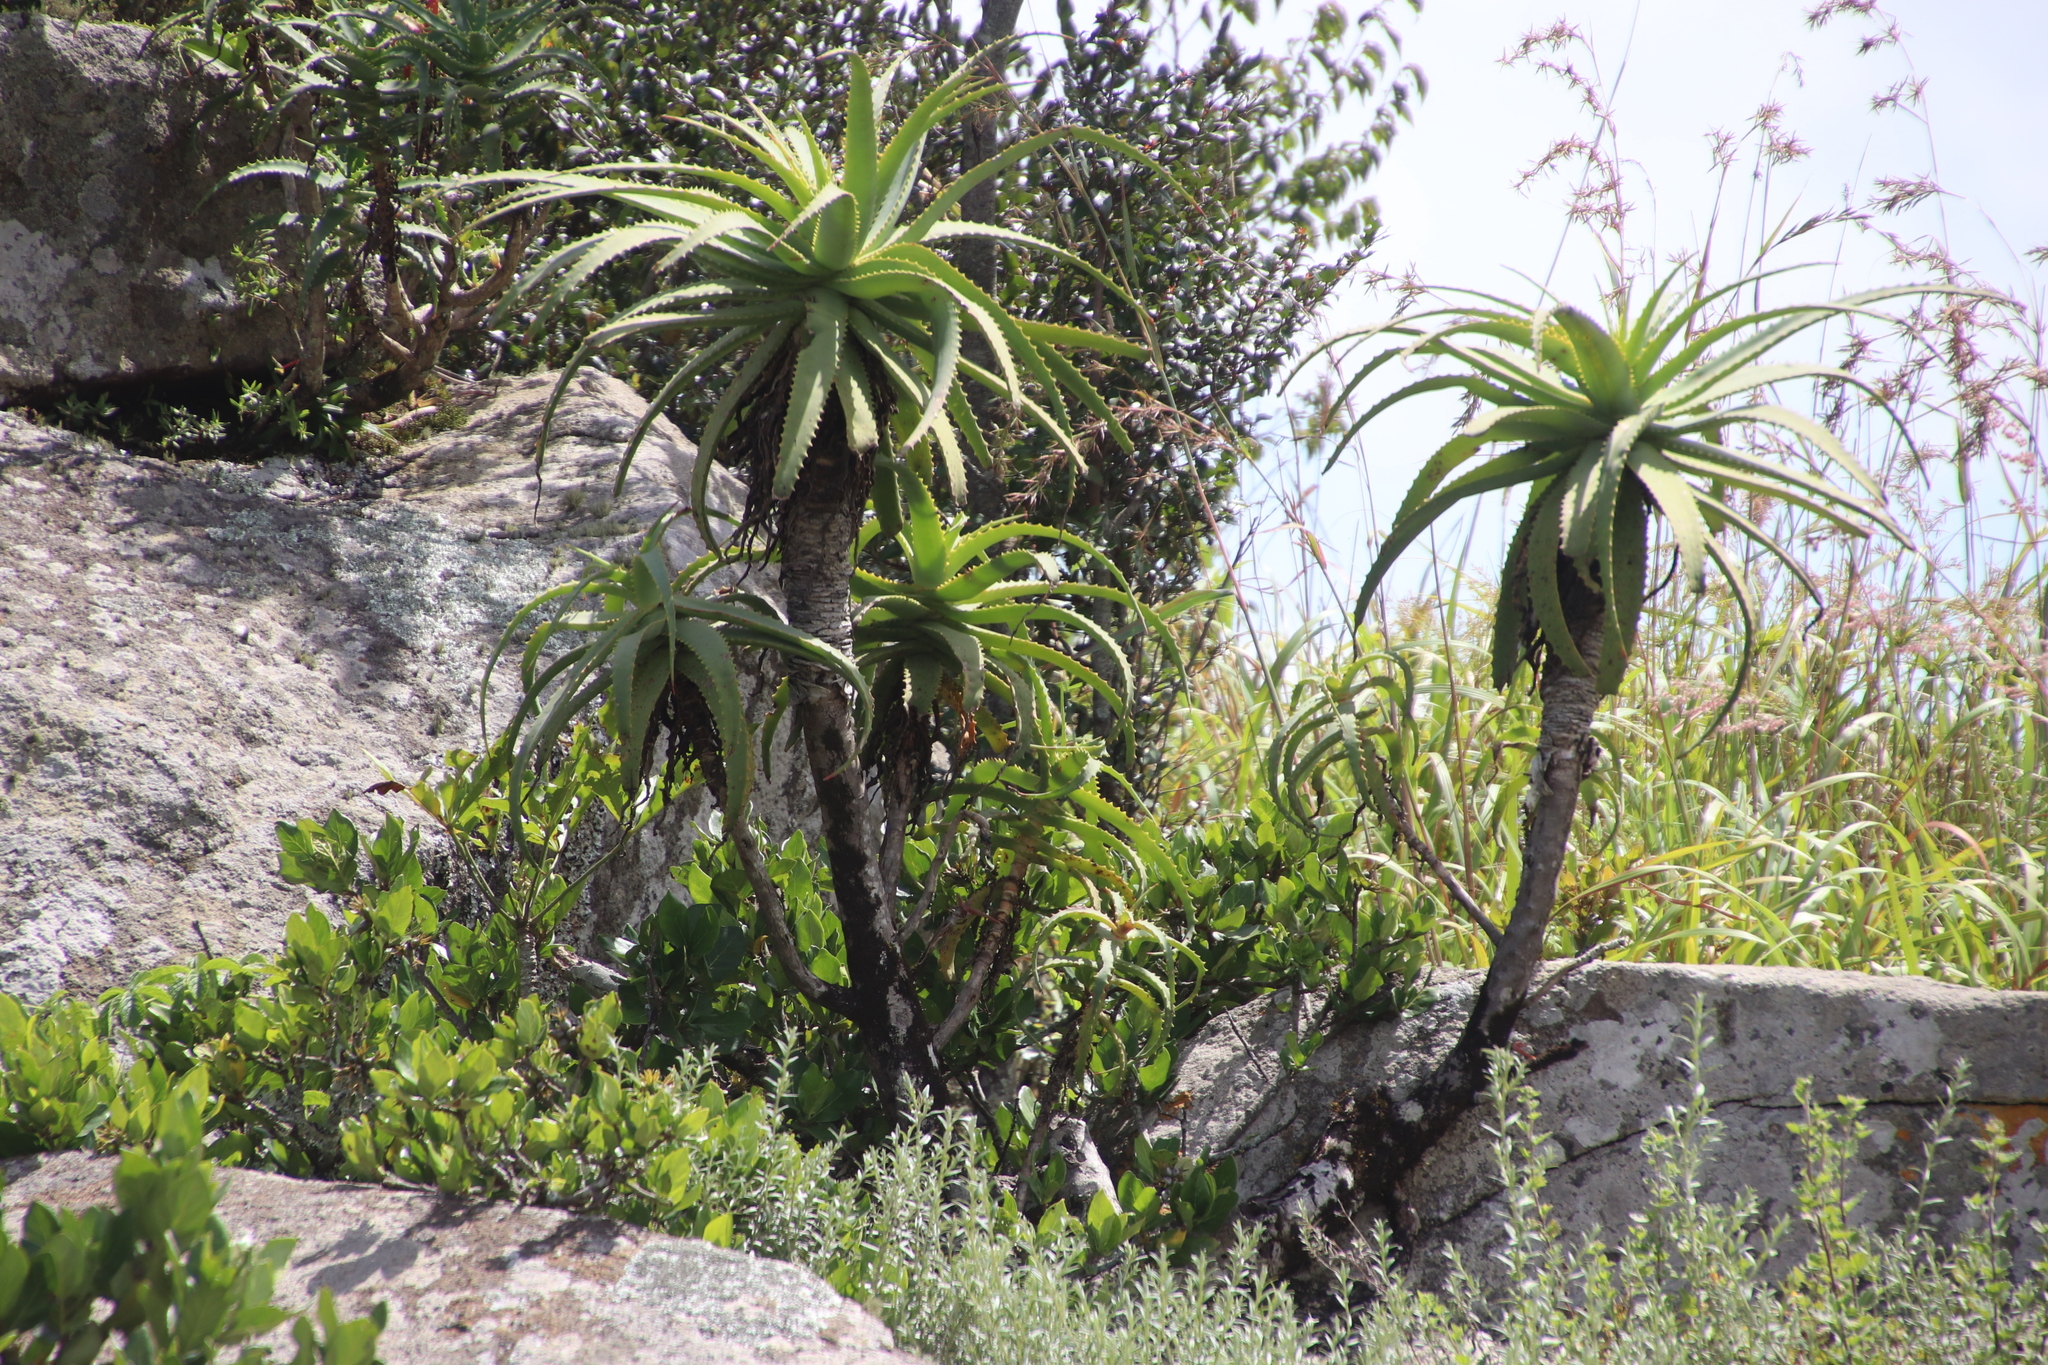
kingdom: Plantae
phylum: Tracheophyta
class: Liliopsida
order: Asparagales
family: Asphodelaceae
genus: Aloe
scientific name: Aloe arborescens
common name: Candelabra aloe
